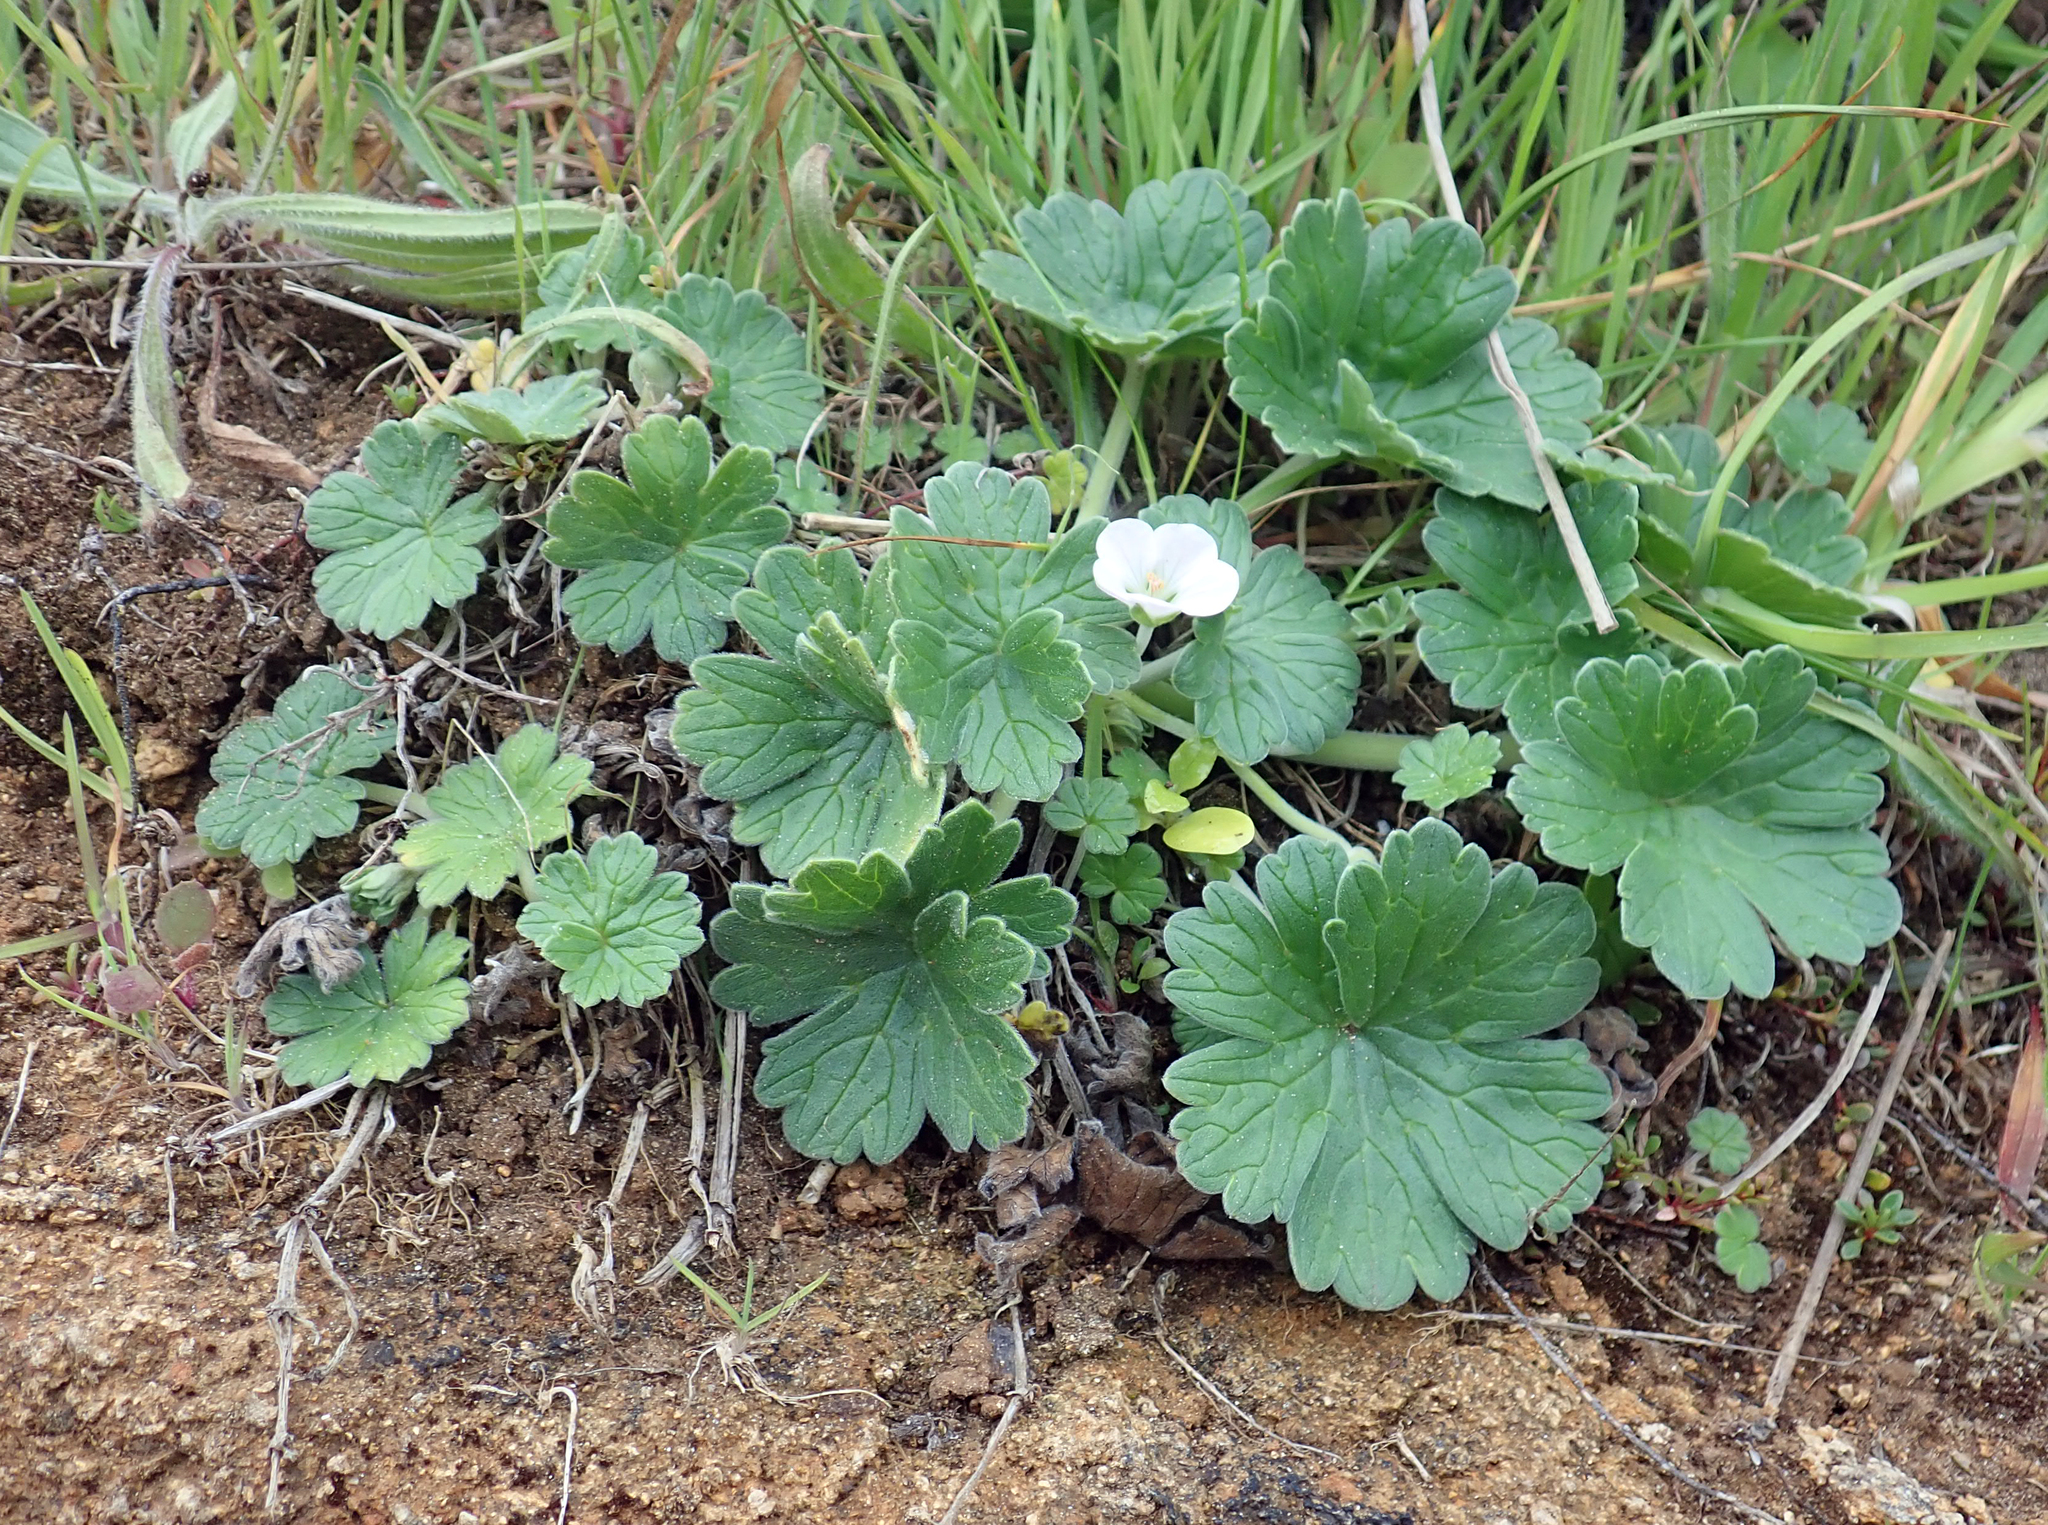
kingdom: Plantae
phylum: Tracheophyta
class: Magnoliopsida
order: Geraniales
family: Geraniaceae
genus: Geranium
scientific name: Geranium traversii
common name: Cranesbill
